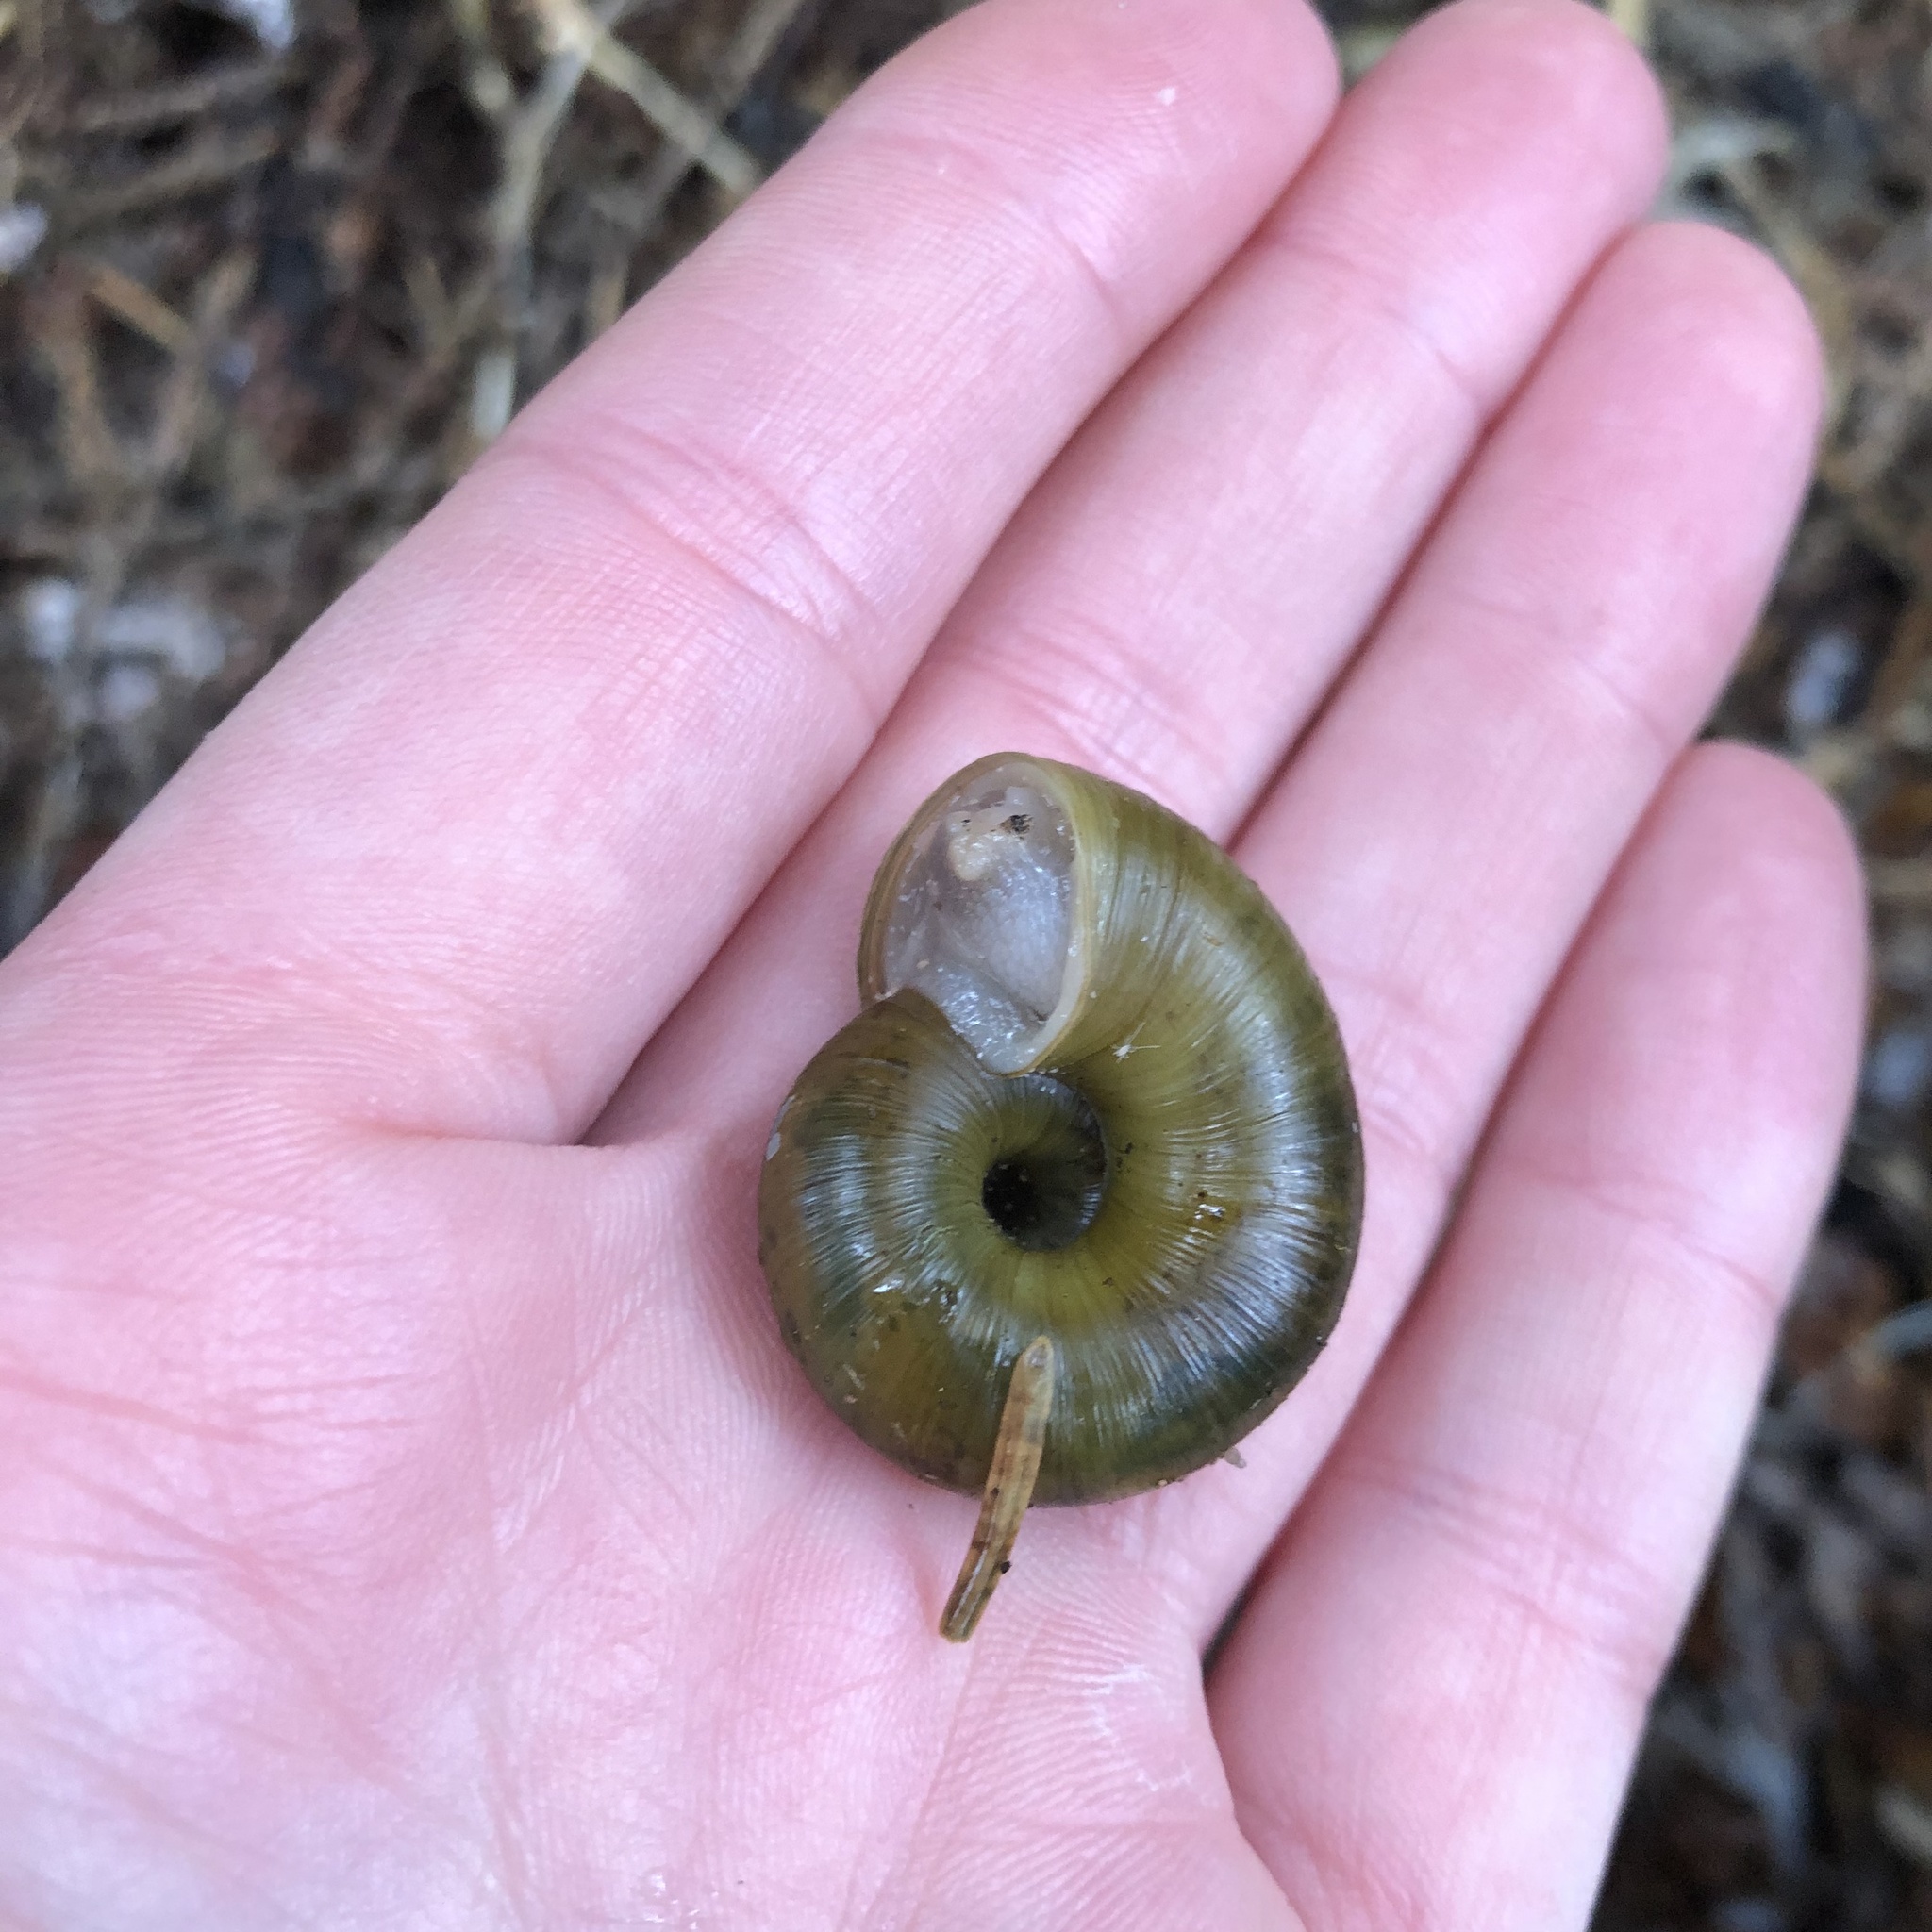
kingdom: Animalia
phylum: Mollusca
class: Gastropoda
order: Stylommatophora
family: Haplotrematidae
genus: Haplotrema
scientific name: Haplotrema vancouverense
